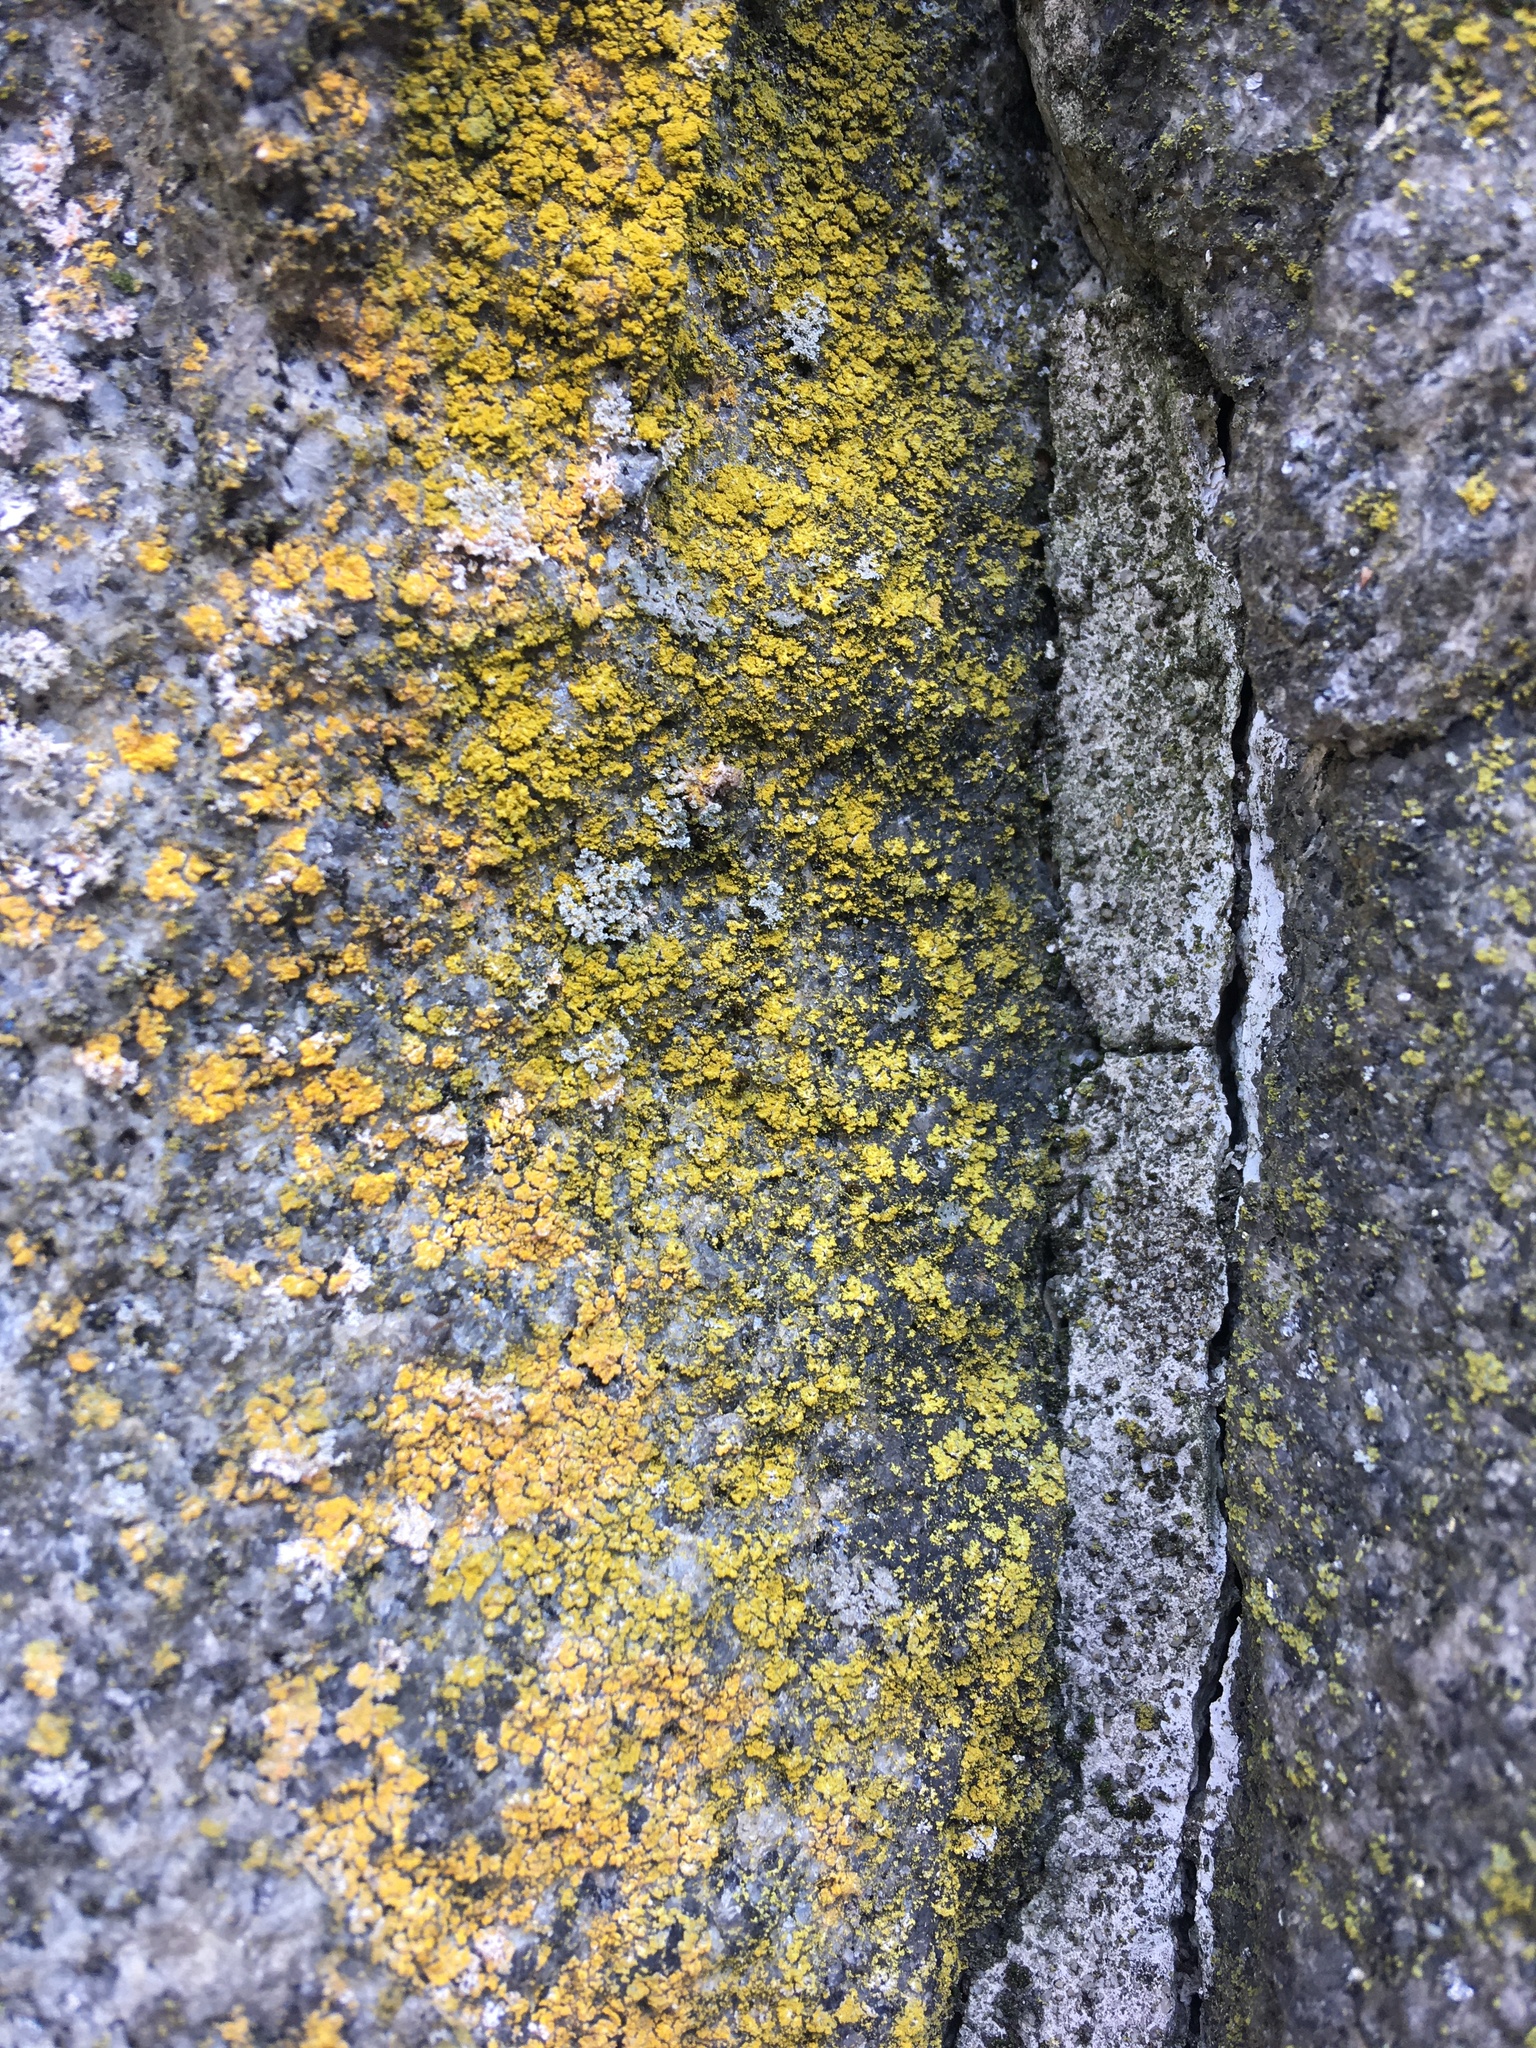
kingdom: Fungi
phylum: Ascomycota
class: Candelariomycetes
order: Candelariales
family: Candelariaceae
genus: Candelaria
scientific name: Candelaria concolor
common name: Candleflame lichen
